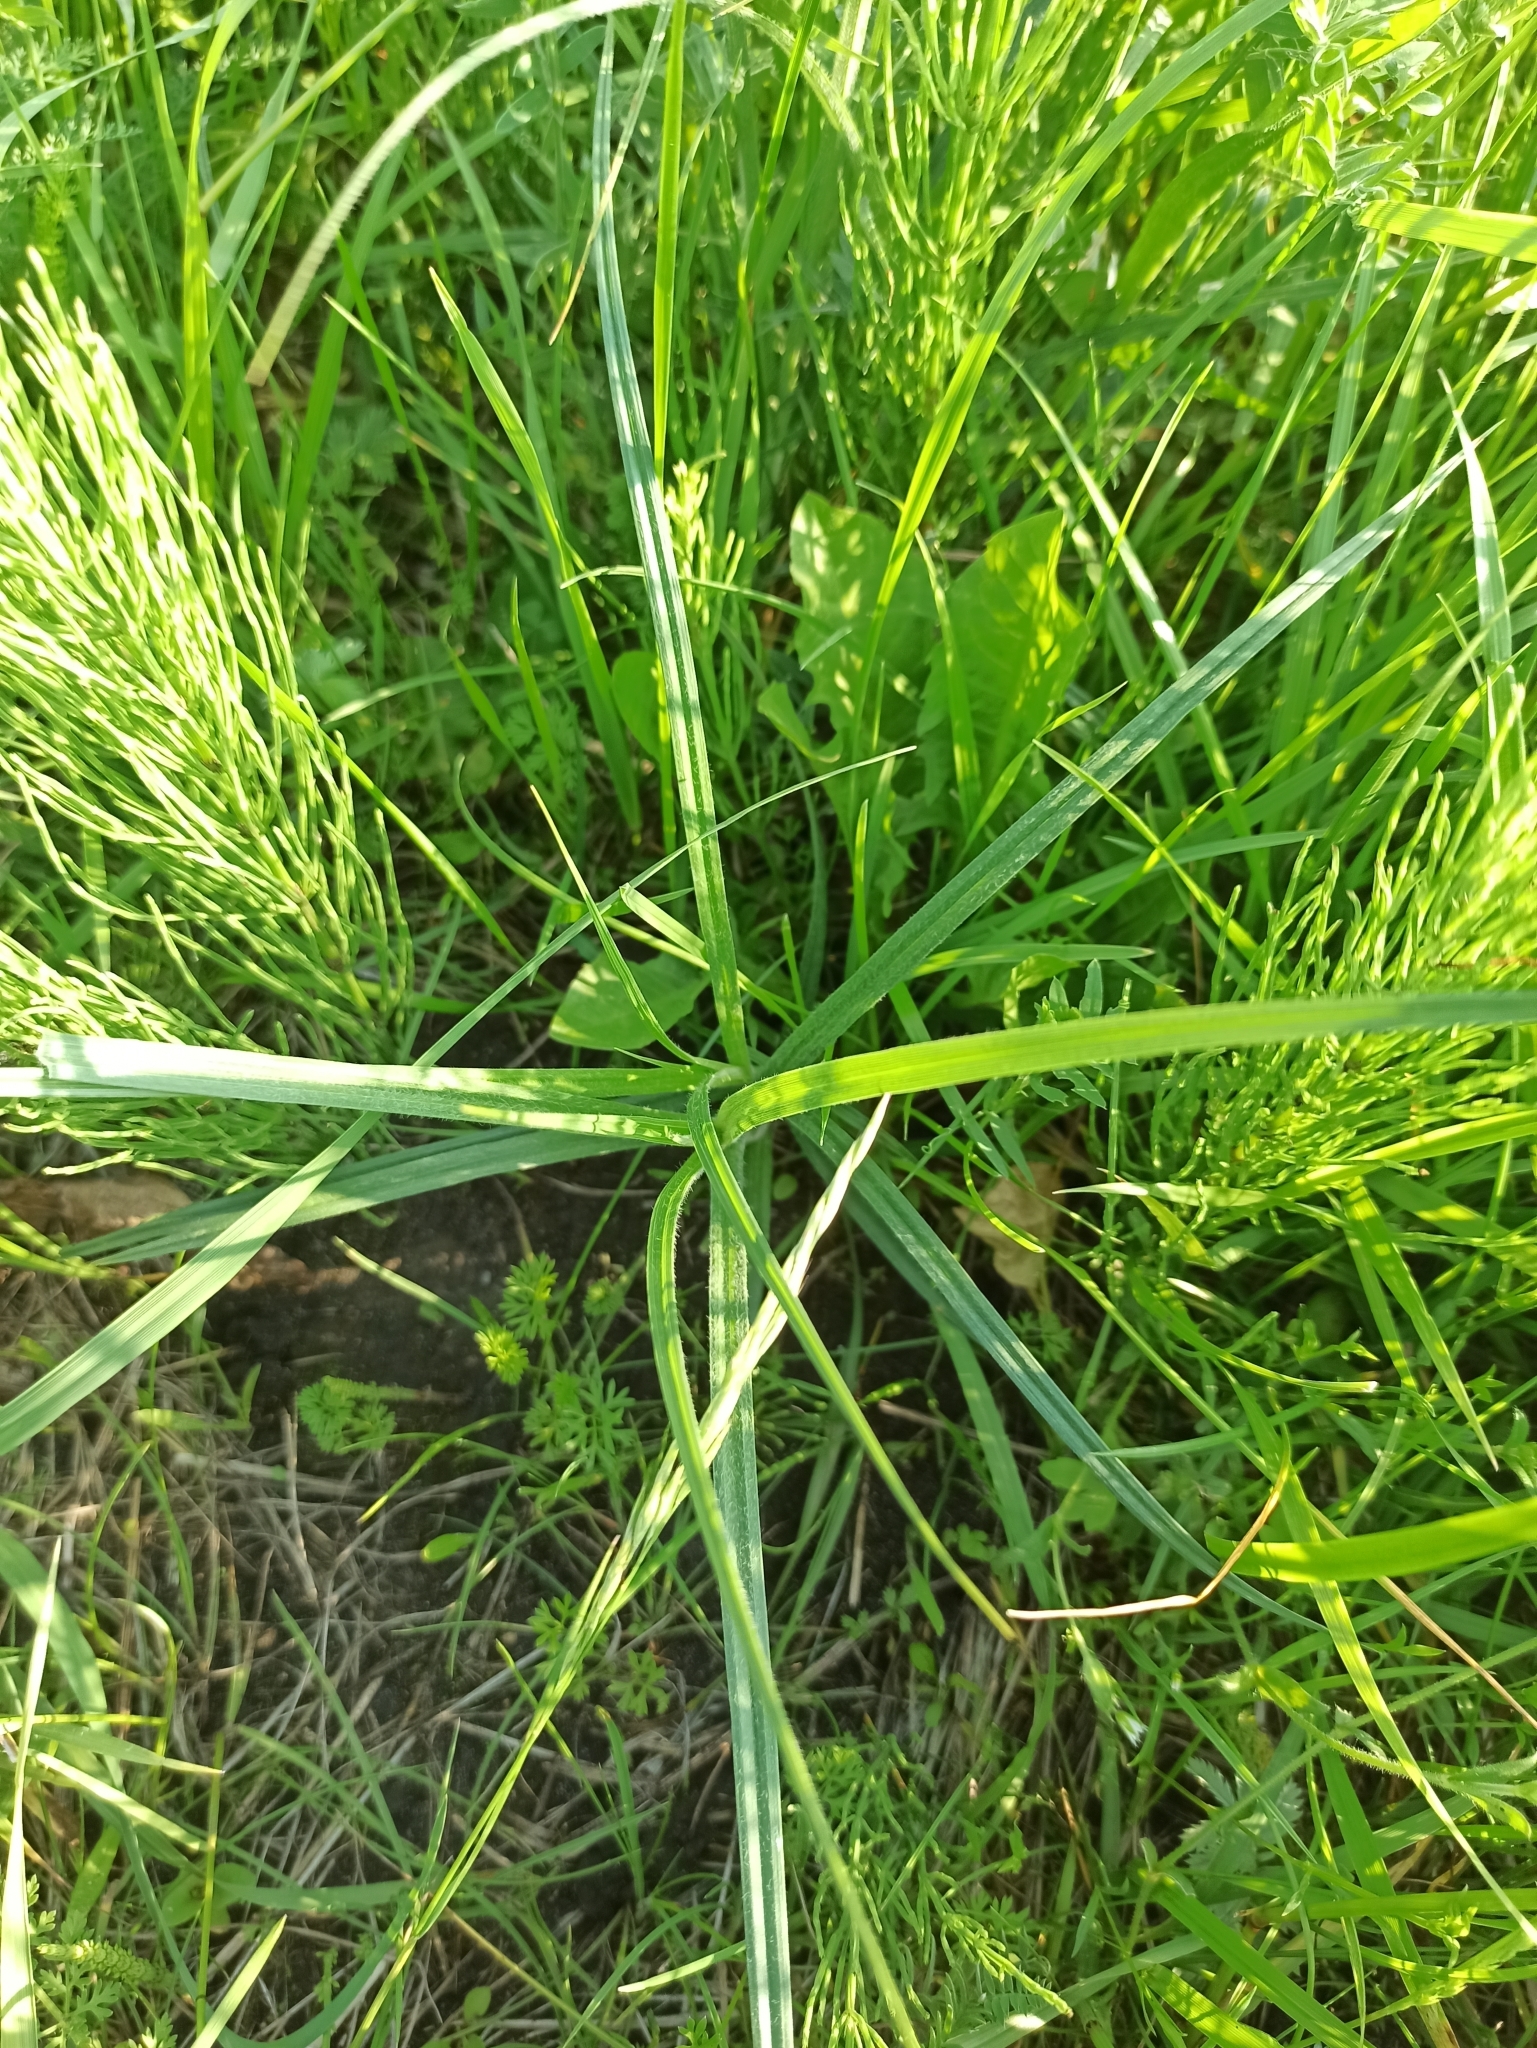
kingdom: Plantae
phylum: Tracheophyta
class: Liliopsida
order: Poales
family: Cyperaceae
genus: Carex
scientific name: Carex hirta
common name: Hairy sedge
